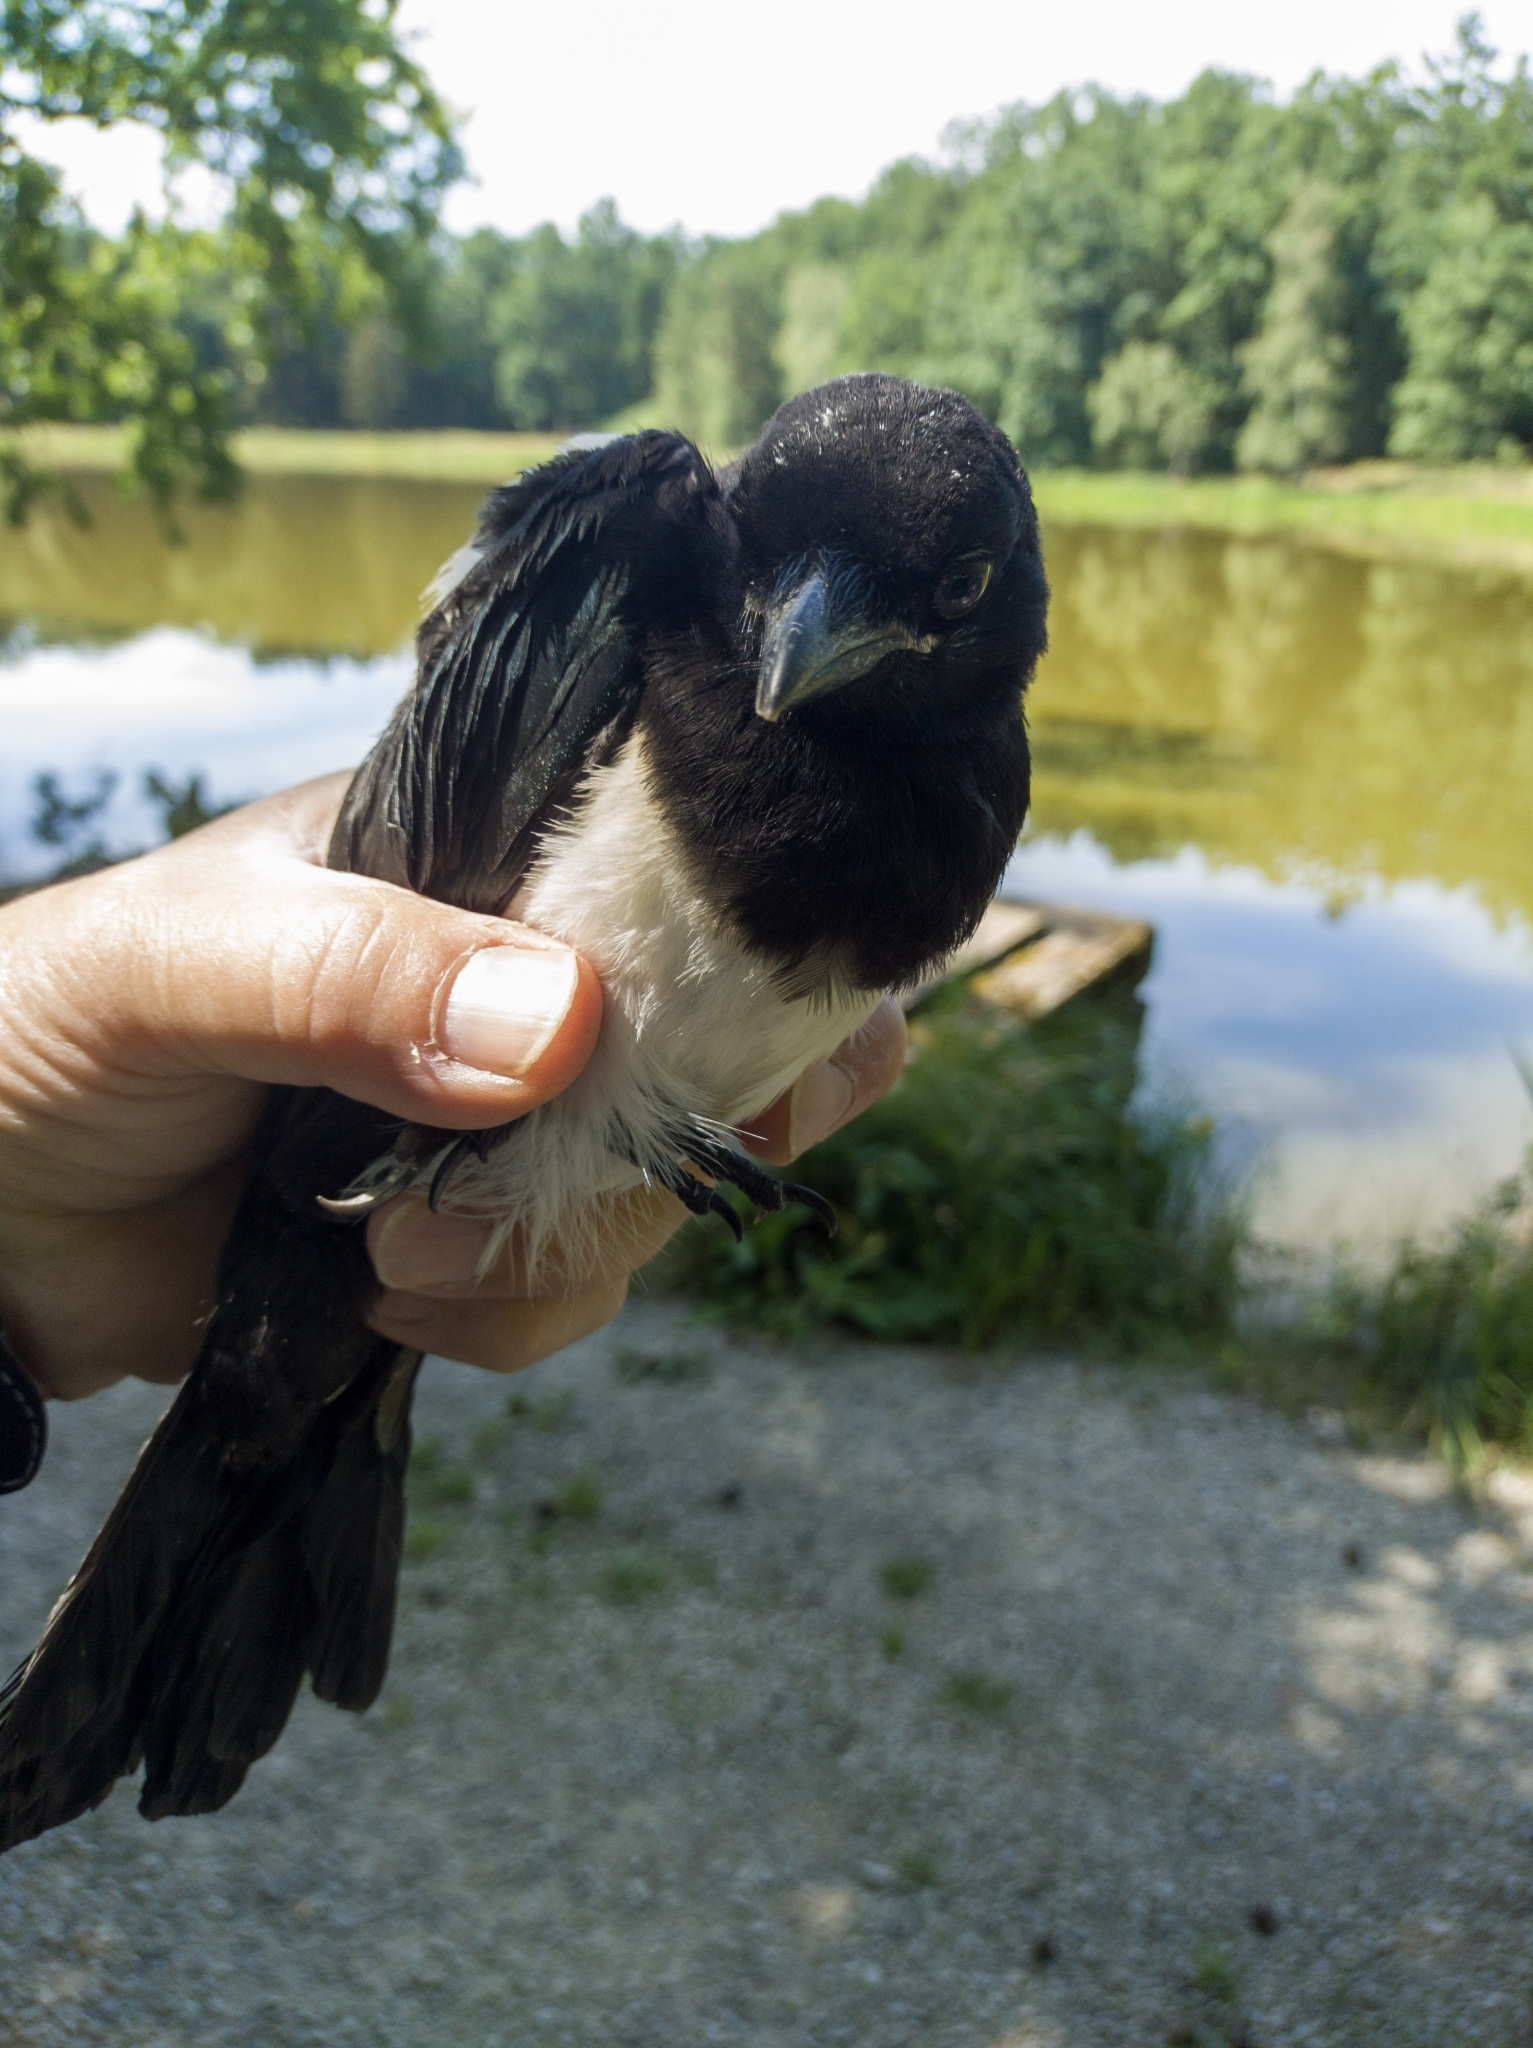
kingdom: Animalia
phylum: Chordata
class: Aves
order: Passeriformes
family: Corvidae
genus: Pica
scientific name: Pica pica
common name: Eurasian magpie
